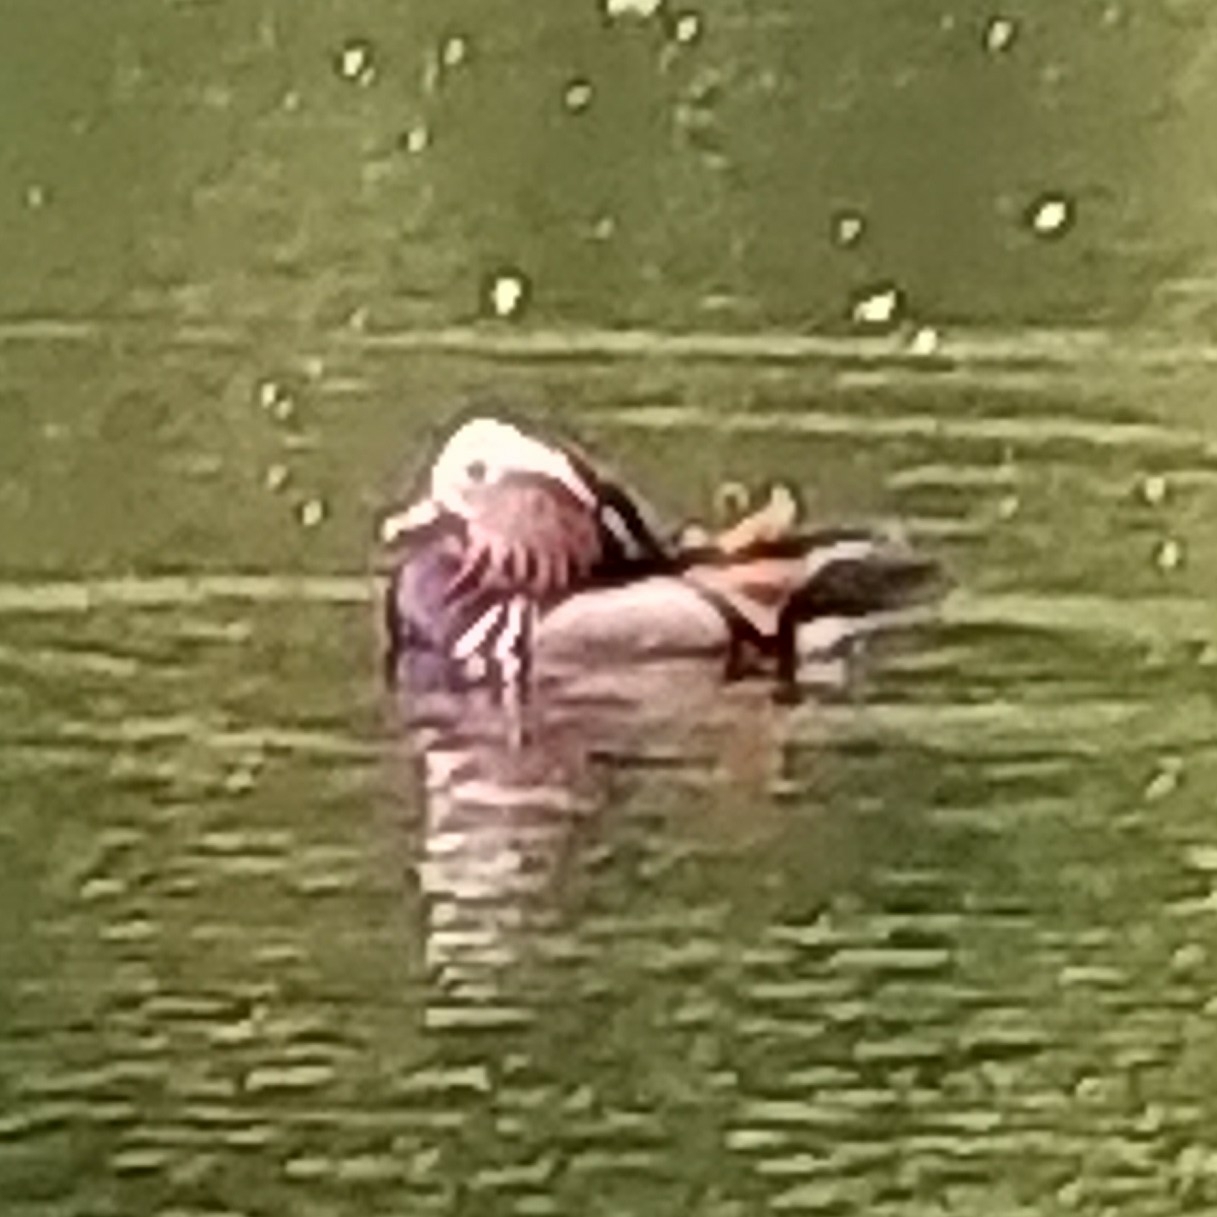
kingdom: Animalia
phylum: Chordata
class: Aves
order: Anseriformes
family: Anatidae
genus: Aix
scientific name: Aix galericulata
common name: Mandarin duck
